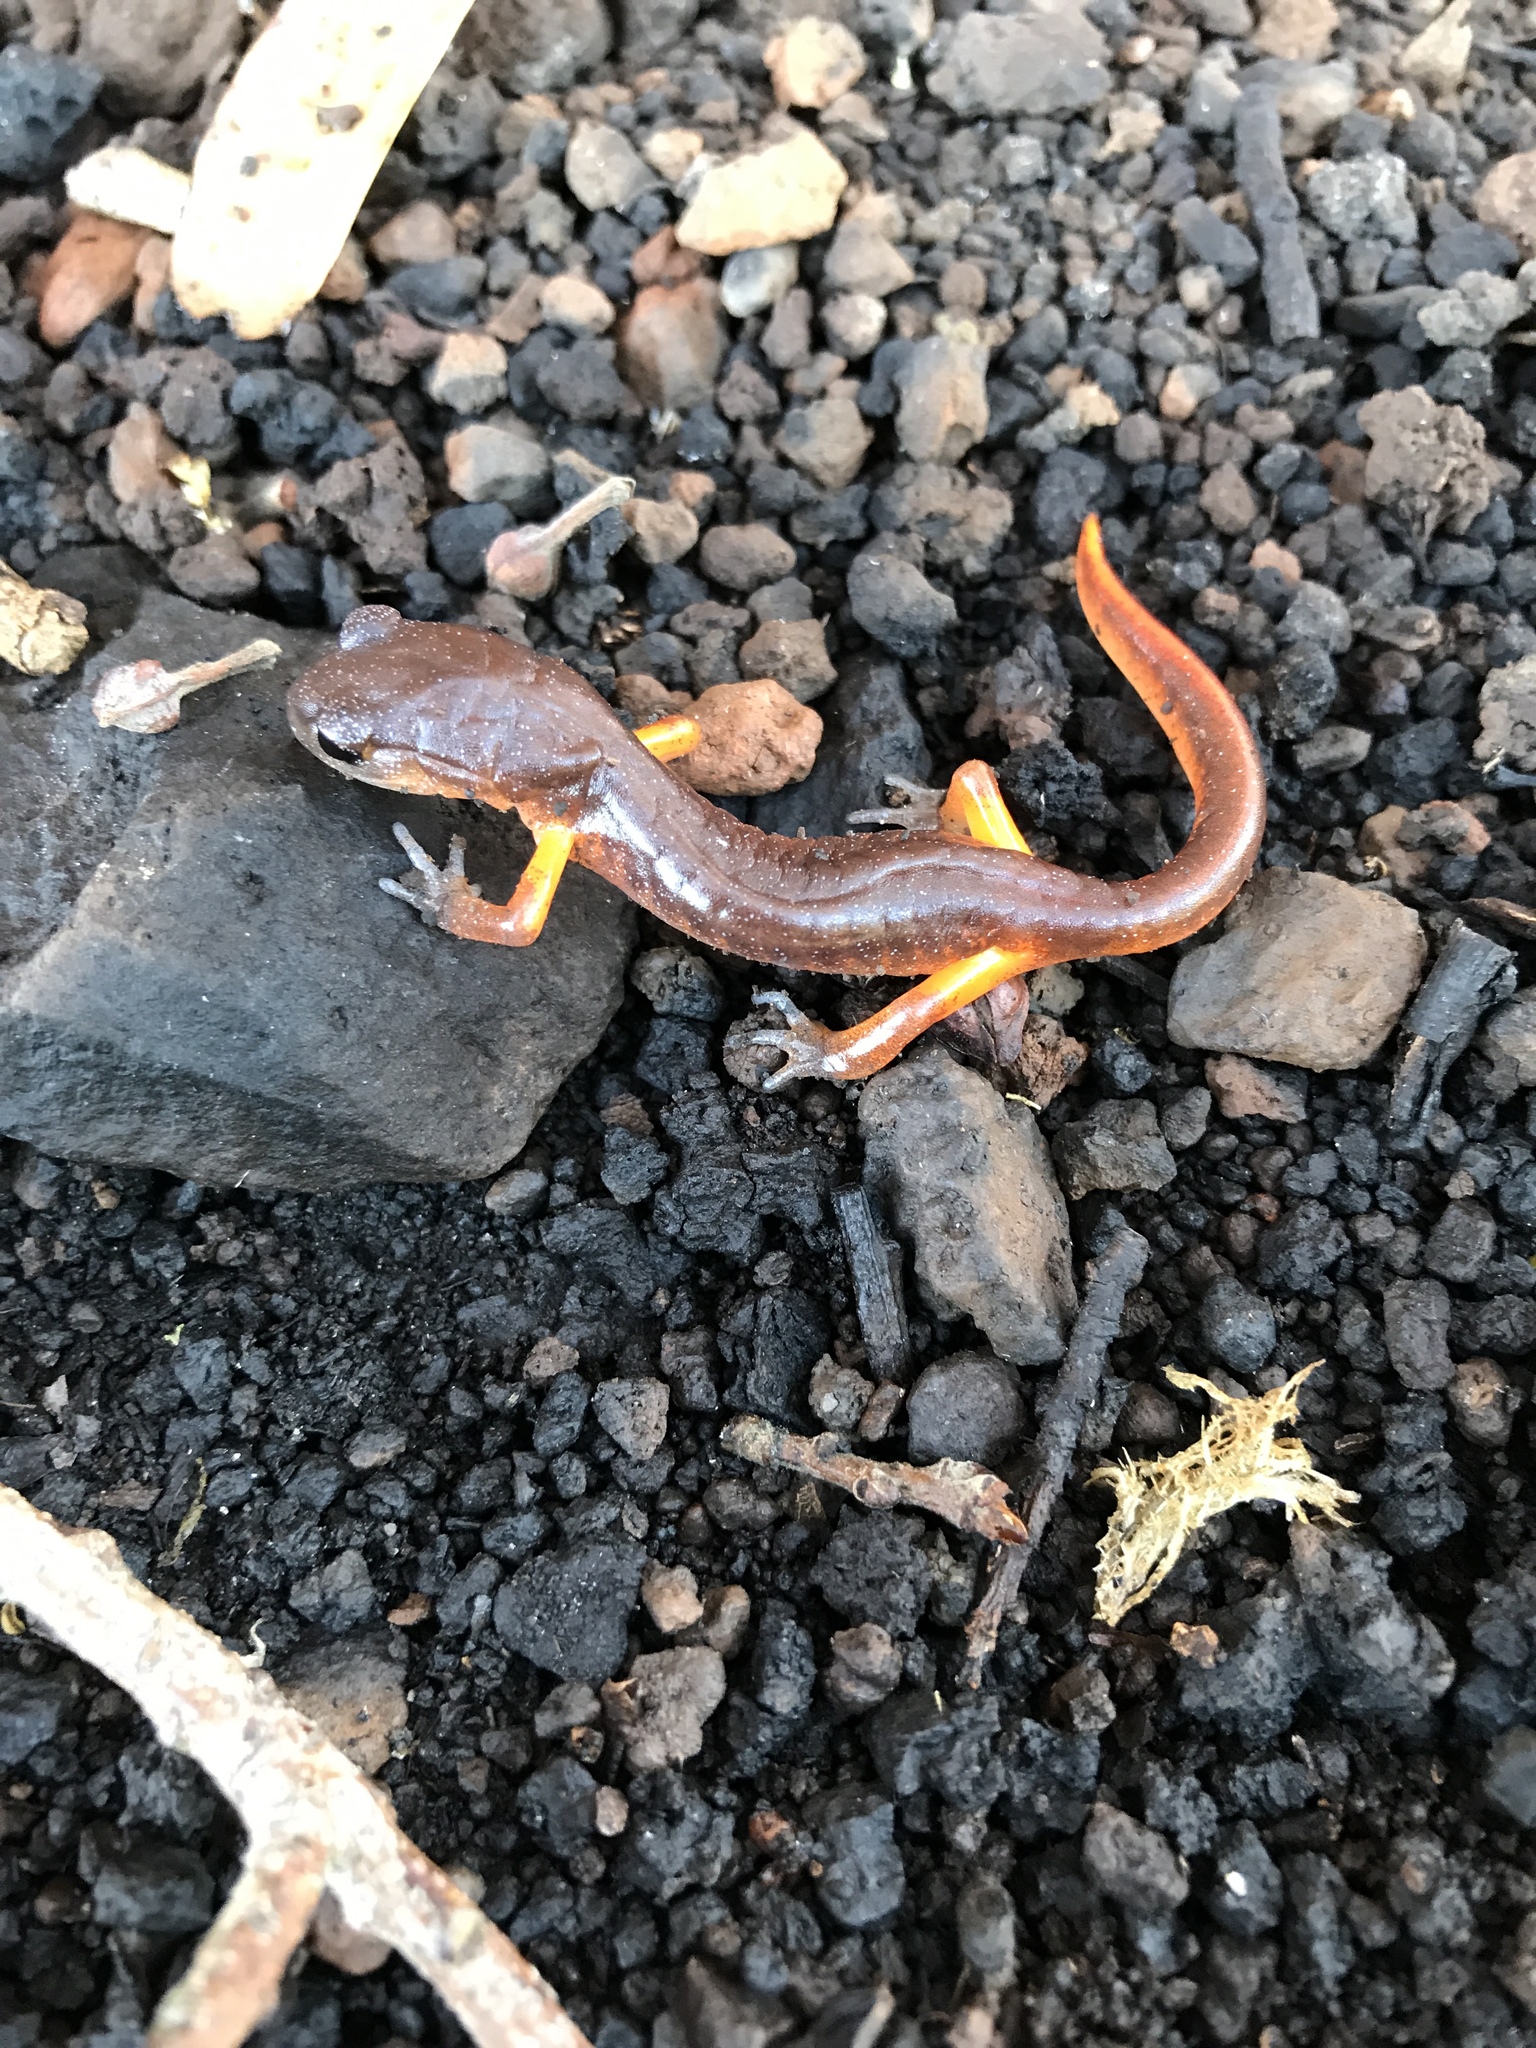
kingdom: Animalia
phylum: Chordata
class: Amphibia
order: Caudata
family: Plethodontidae
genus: Ensatina
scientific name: Ensatina eschscholtzii
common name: Ensatina
